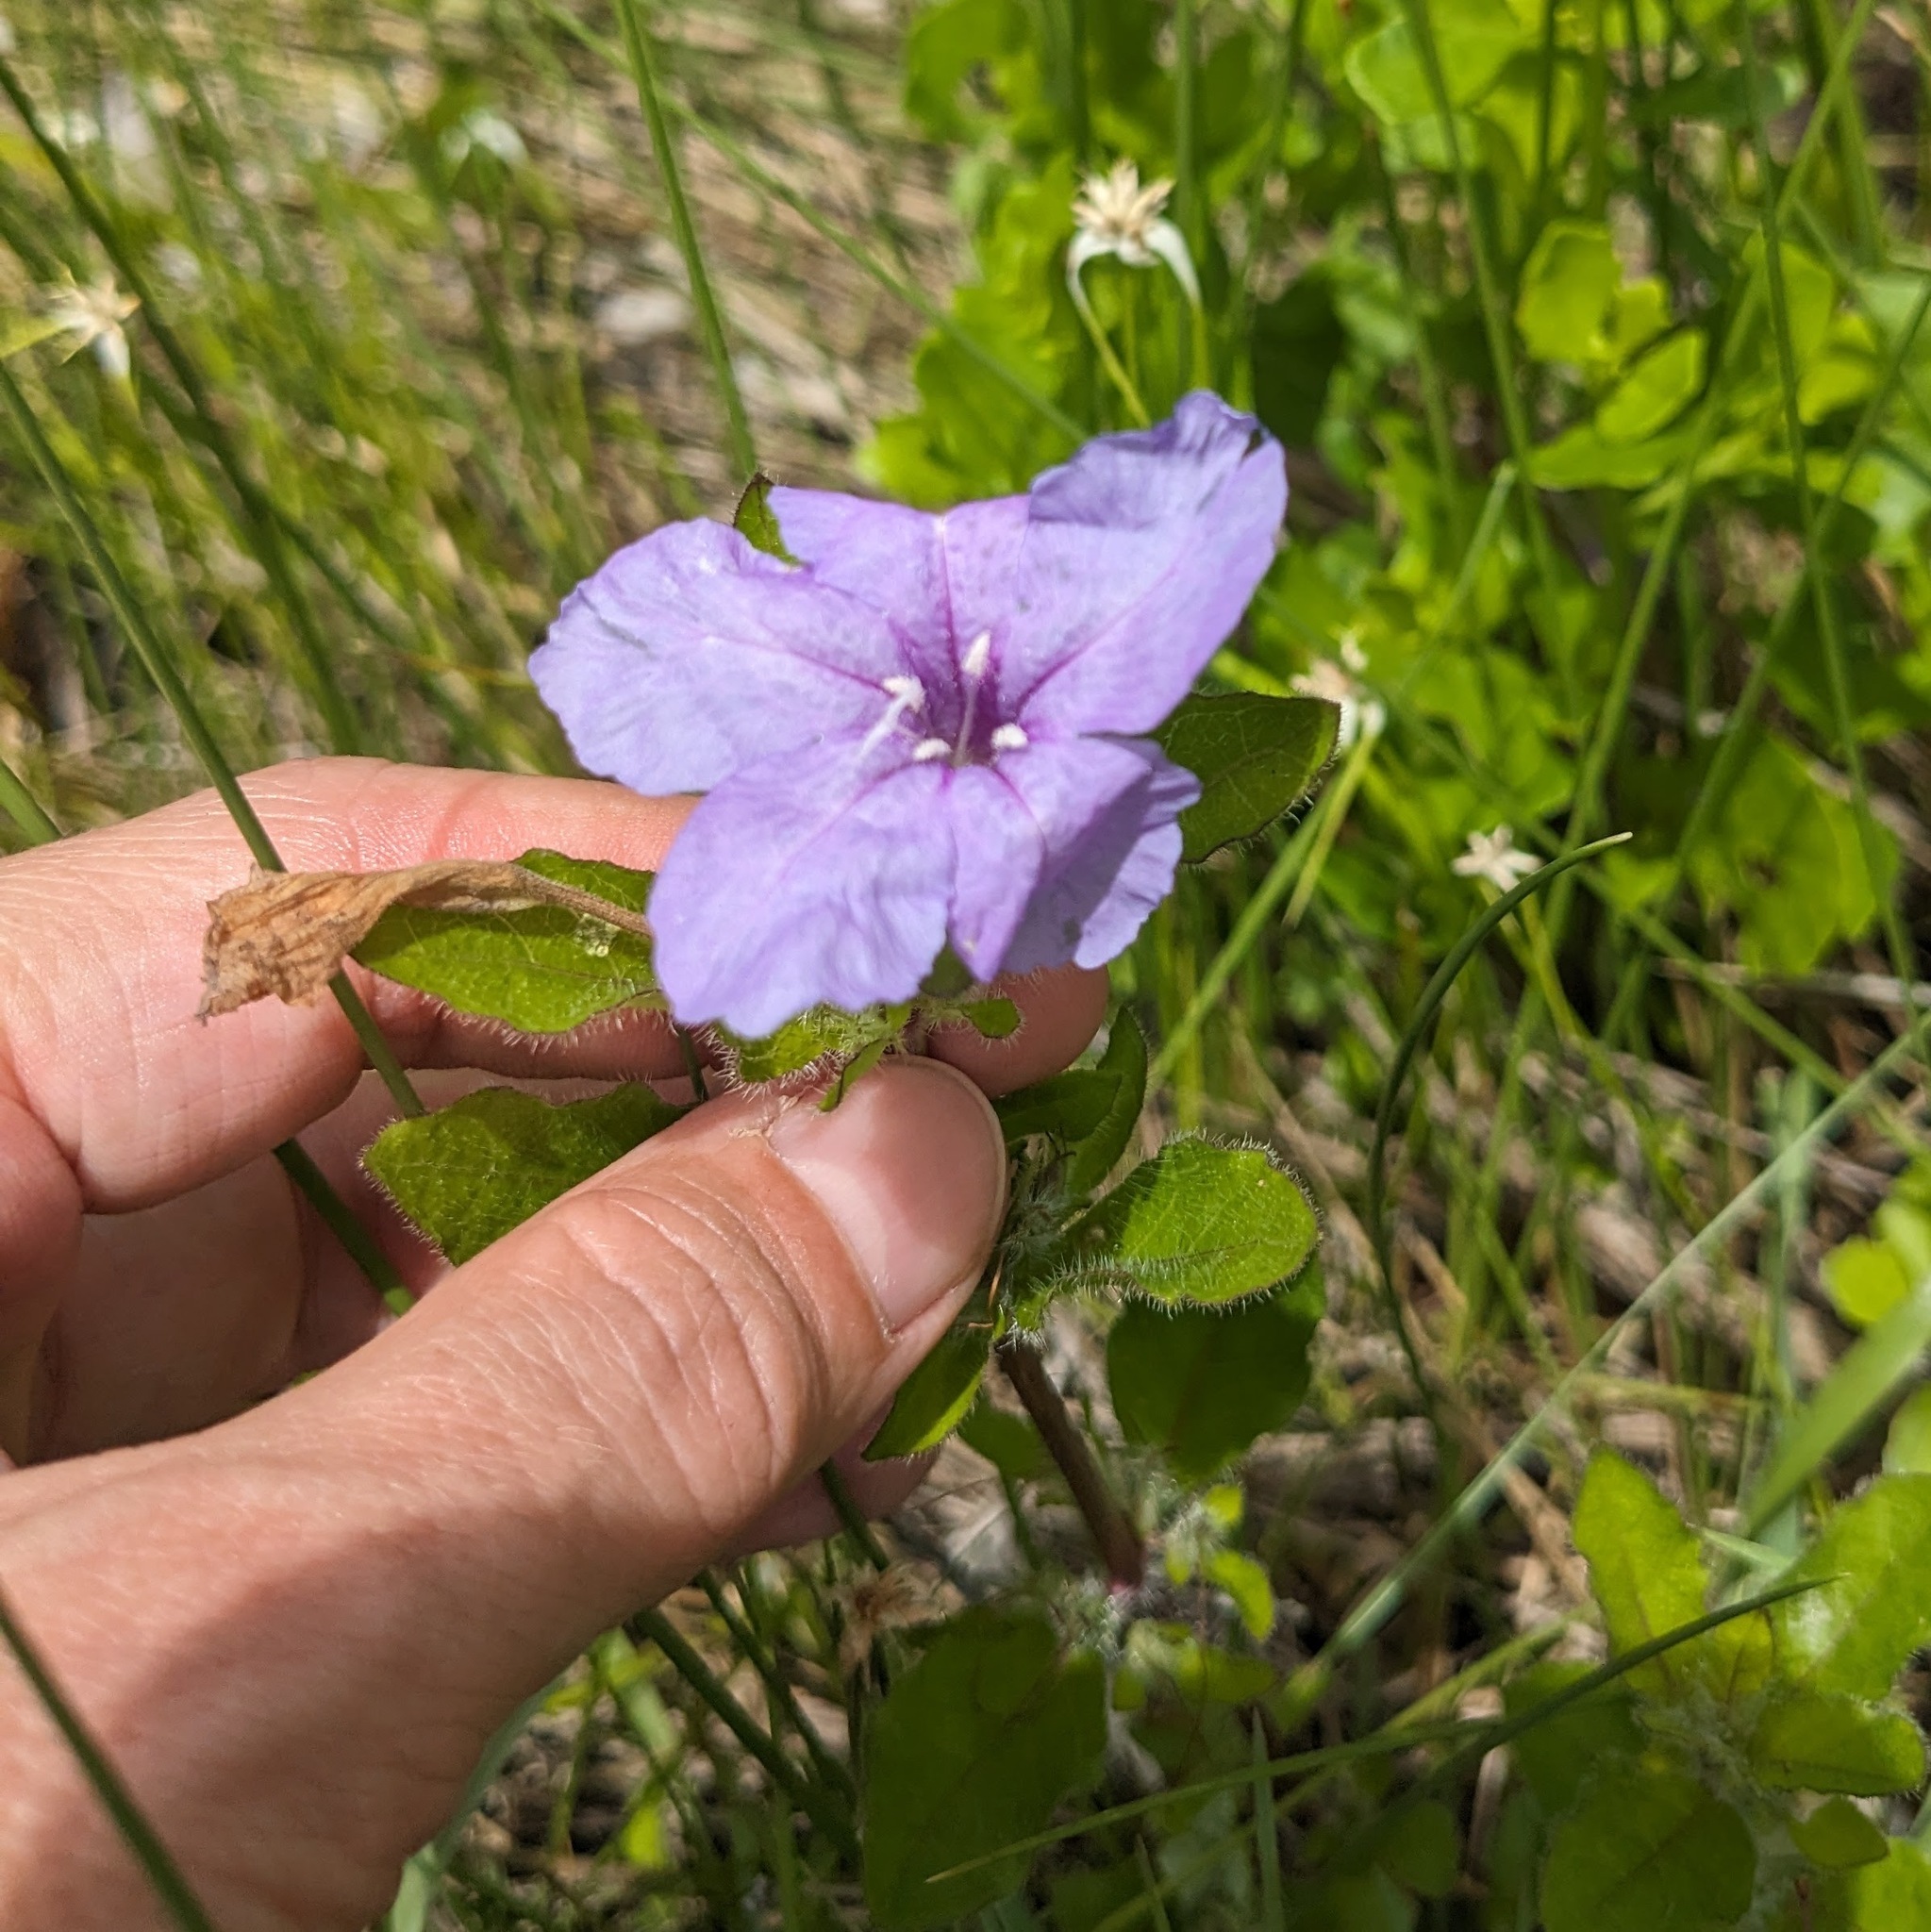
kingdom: Plantae
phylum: Tracheophyta
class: Magnoliopsida
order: Lamiales
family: Acanthaceae
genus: Ruellia
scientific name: Ruellia caroliniensis
